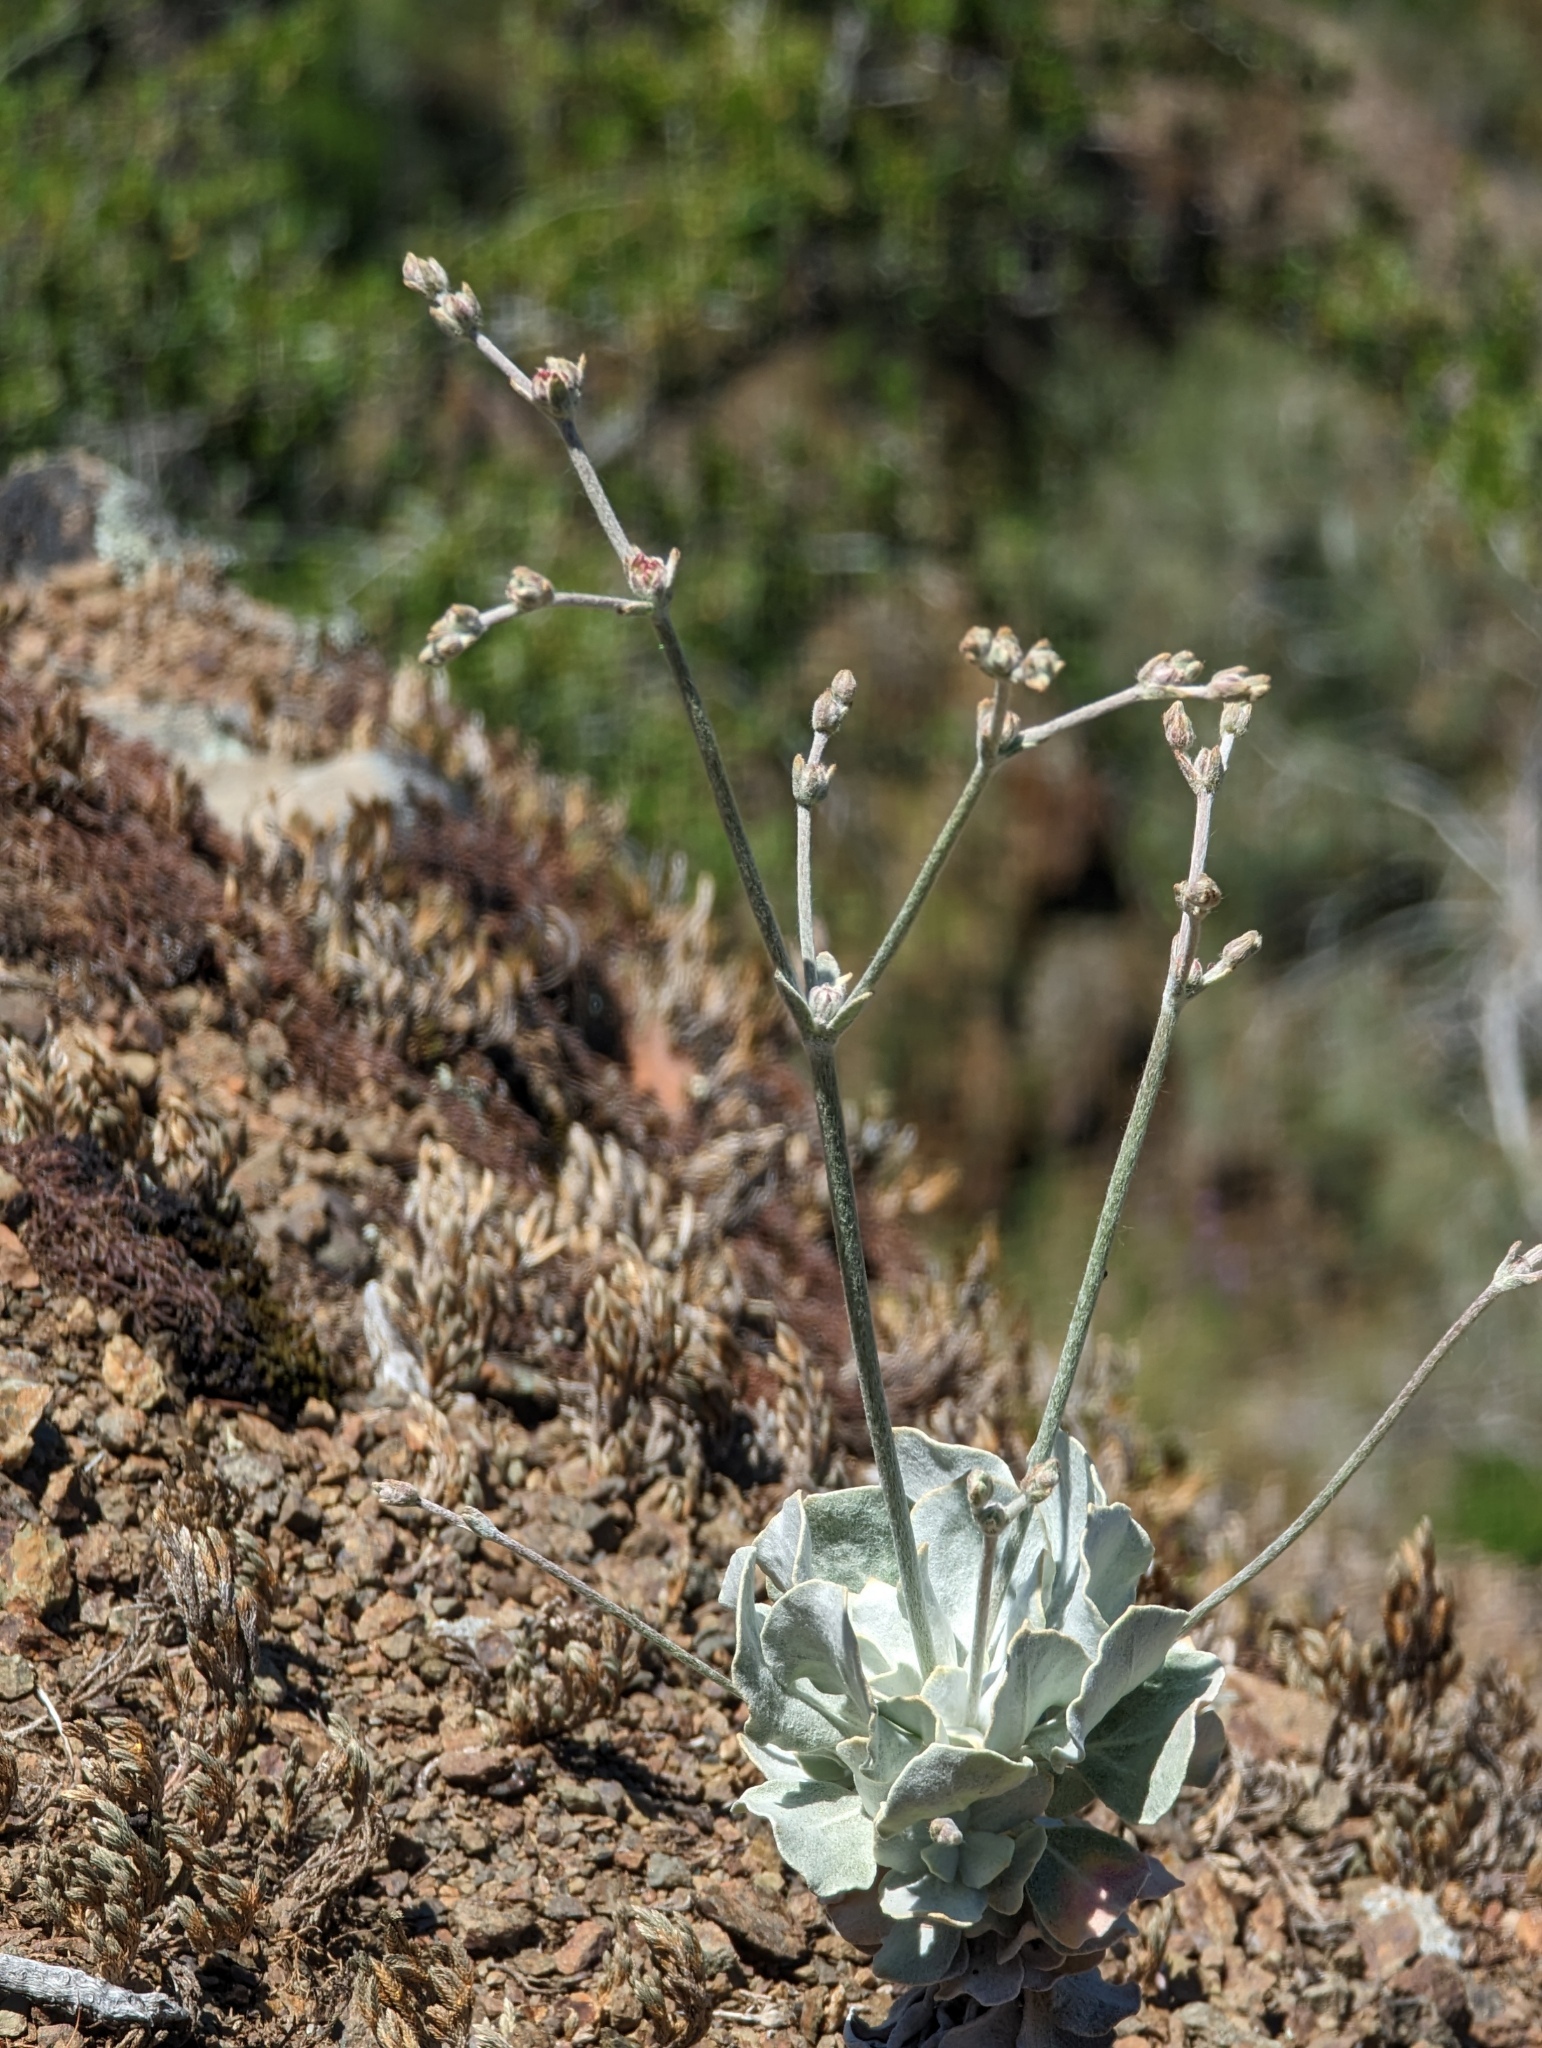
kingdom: Plantae
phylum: Tracheophyta
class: Magnoliopsida
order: Caryophyllales
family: Polygonaceae
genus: Eriogonum
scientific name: Eriogonum saxatile
